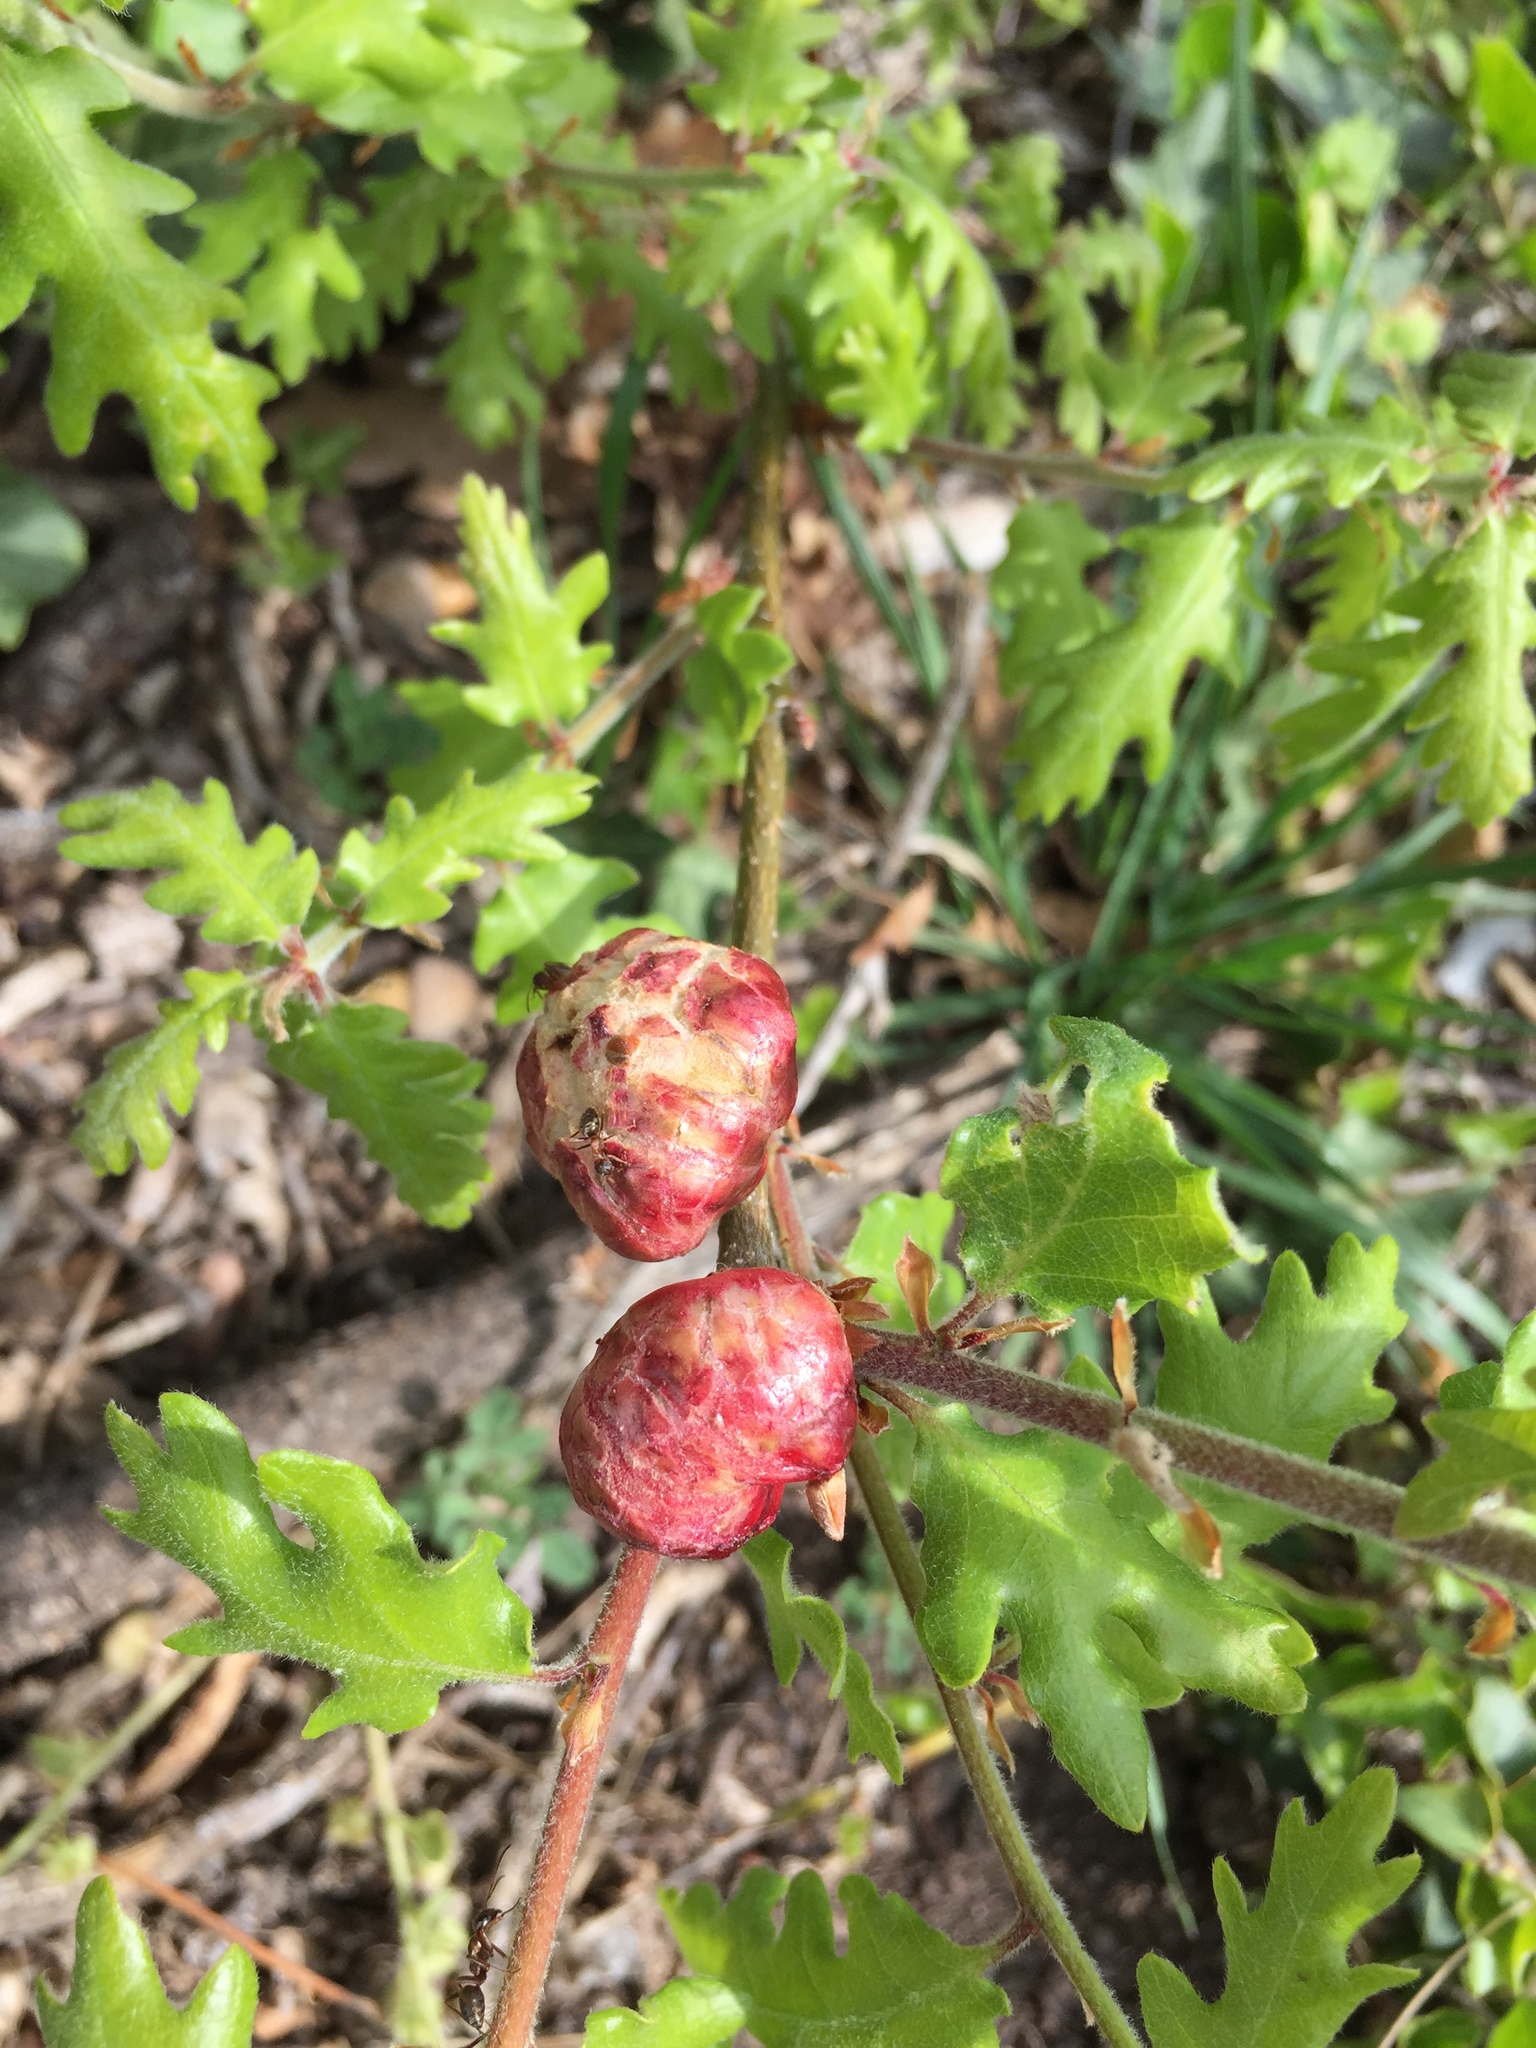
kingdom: Animalia
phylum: Arthropoda
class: Insecta
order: Hymenoptera
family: Cynipidae
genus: Biorhiza
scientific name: Biorhiza pallida
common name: Oak apple
